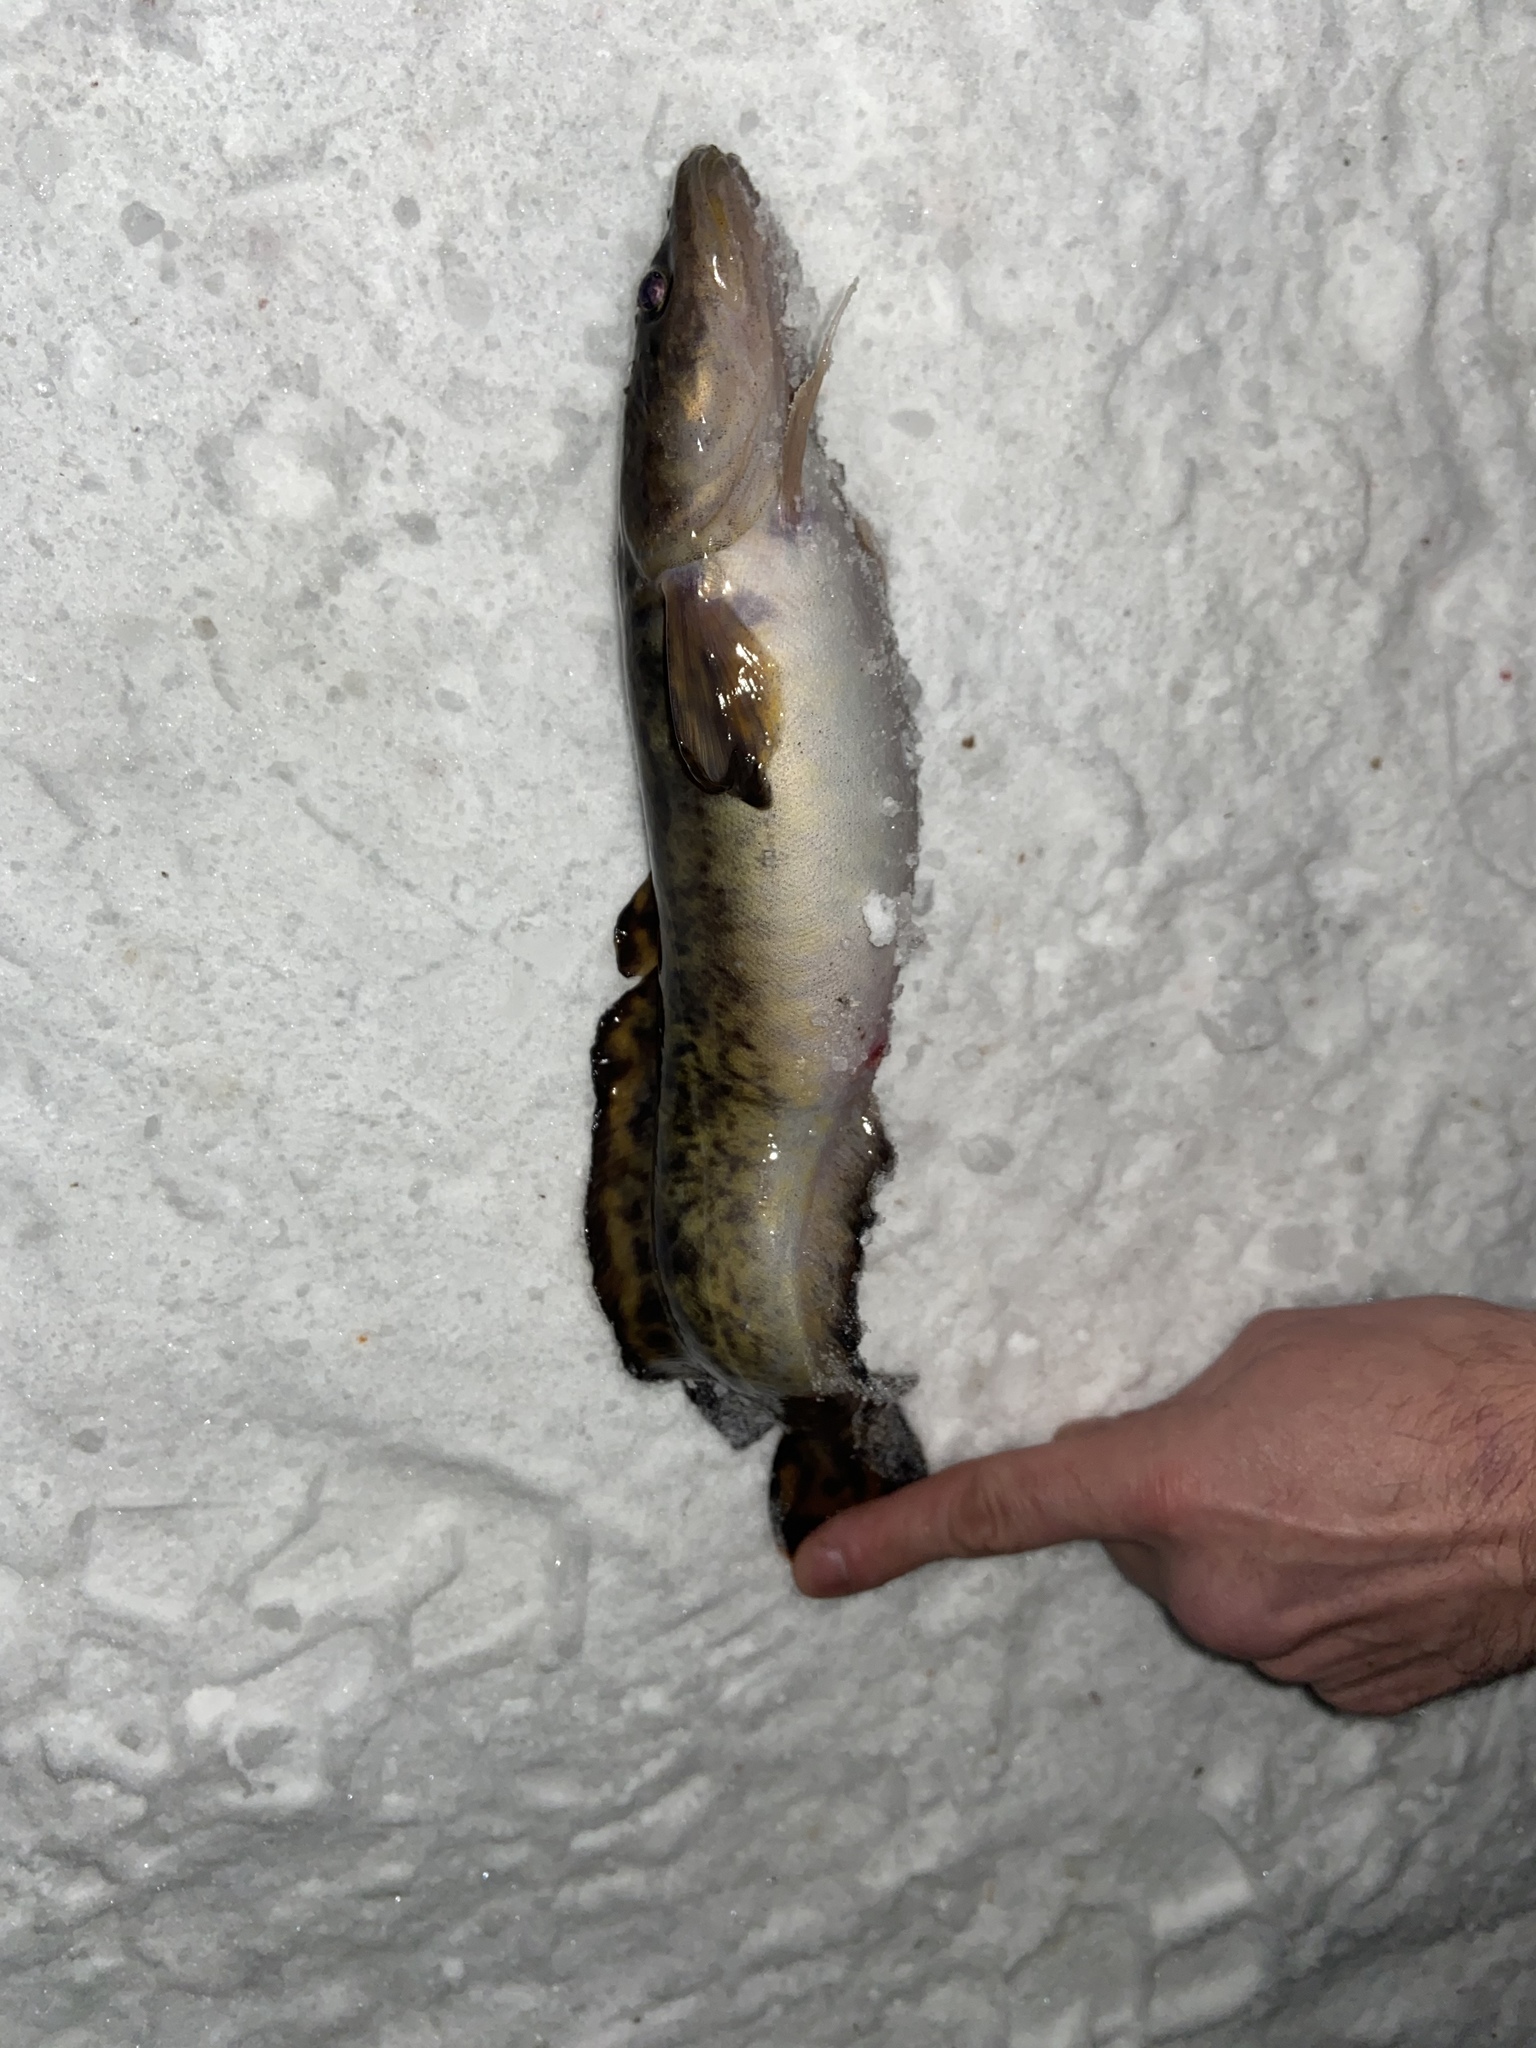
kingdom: Animalia
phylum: Chordata
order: Gadiformes
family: Lotidae
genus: Lota
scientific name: Lota lota
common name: Burbot
